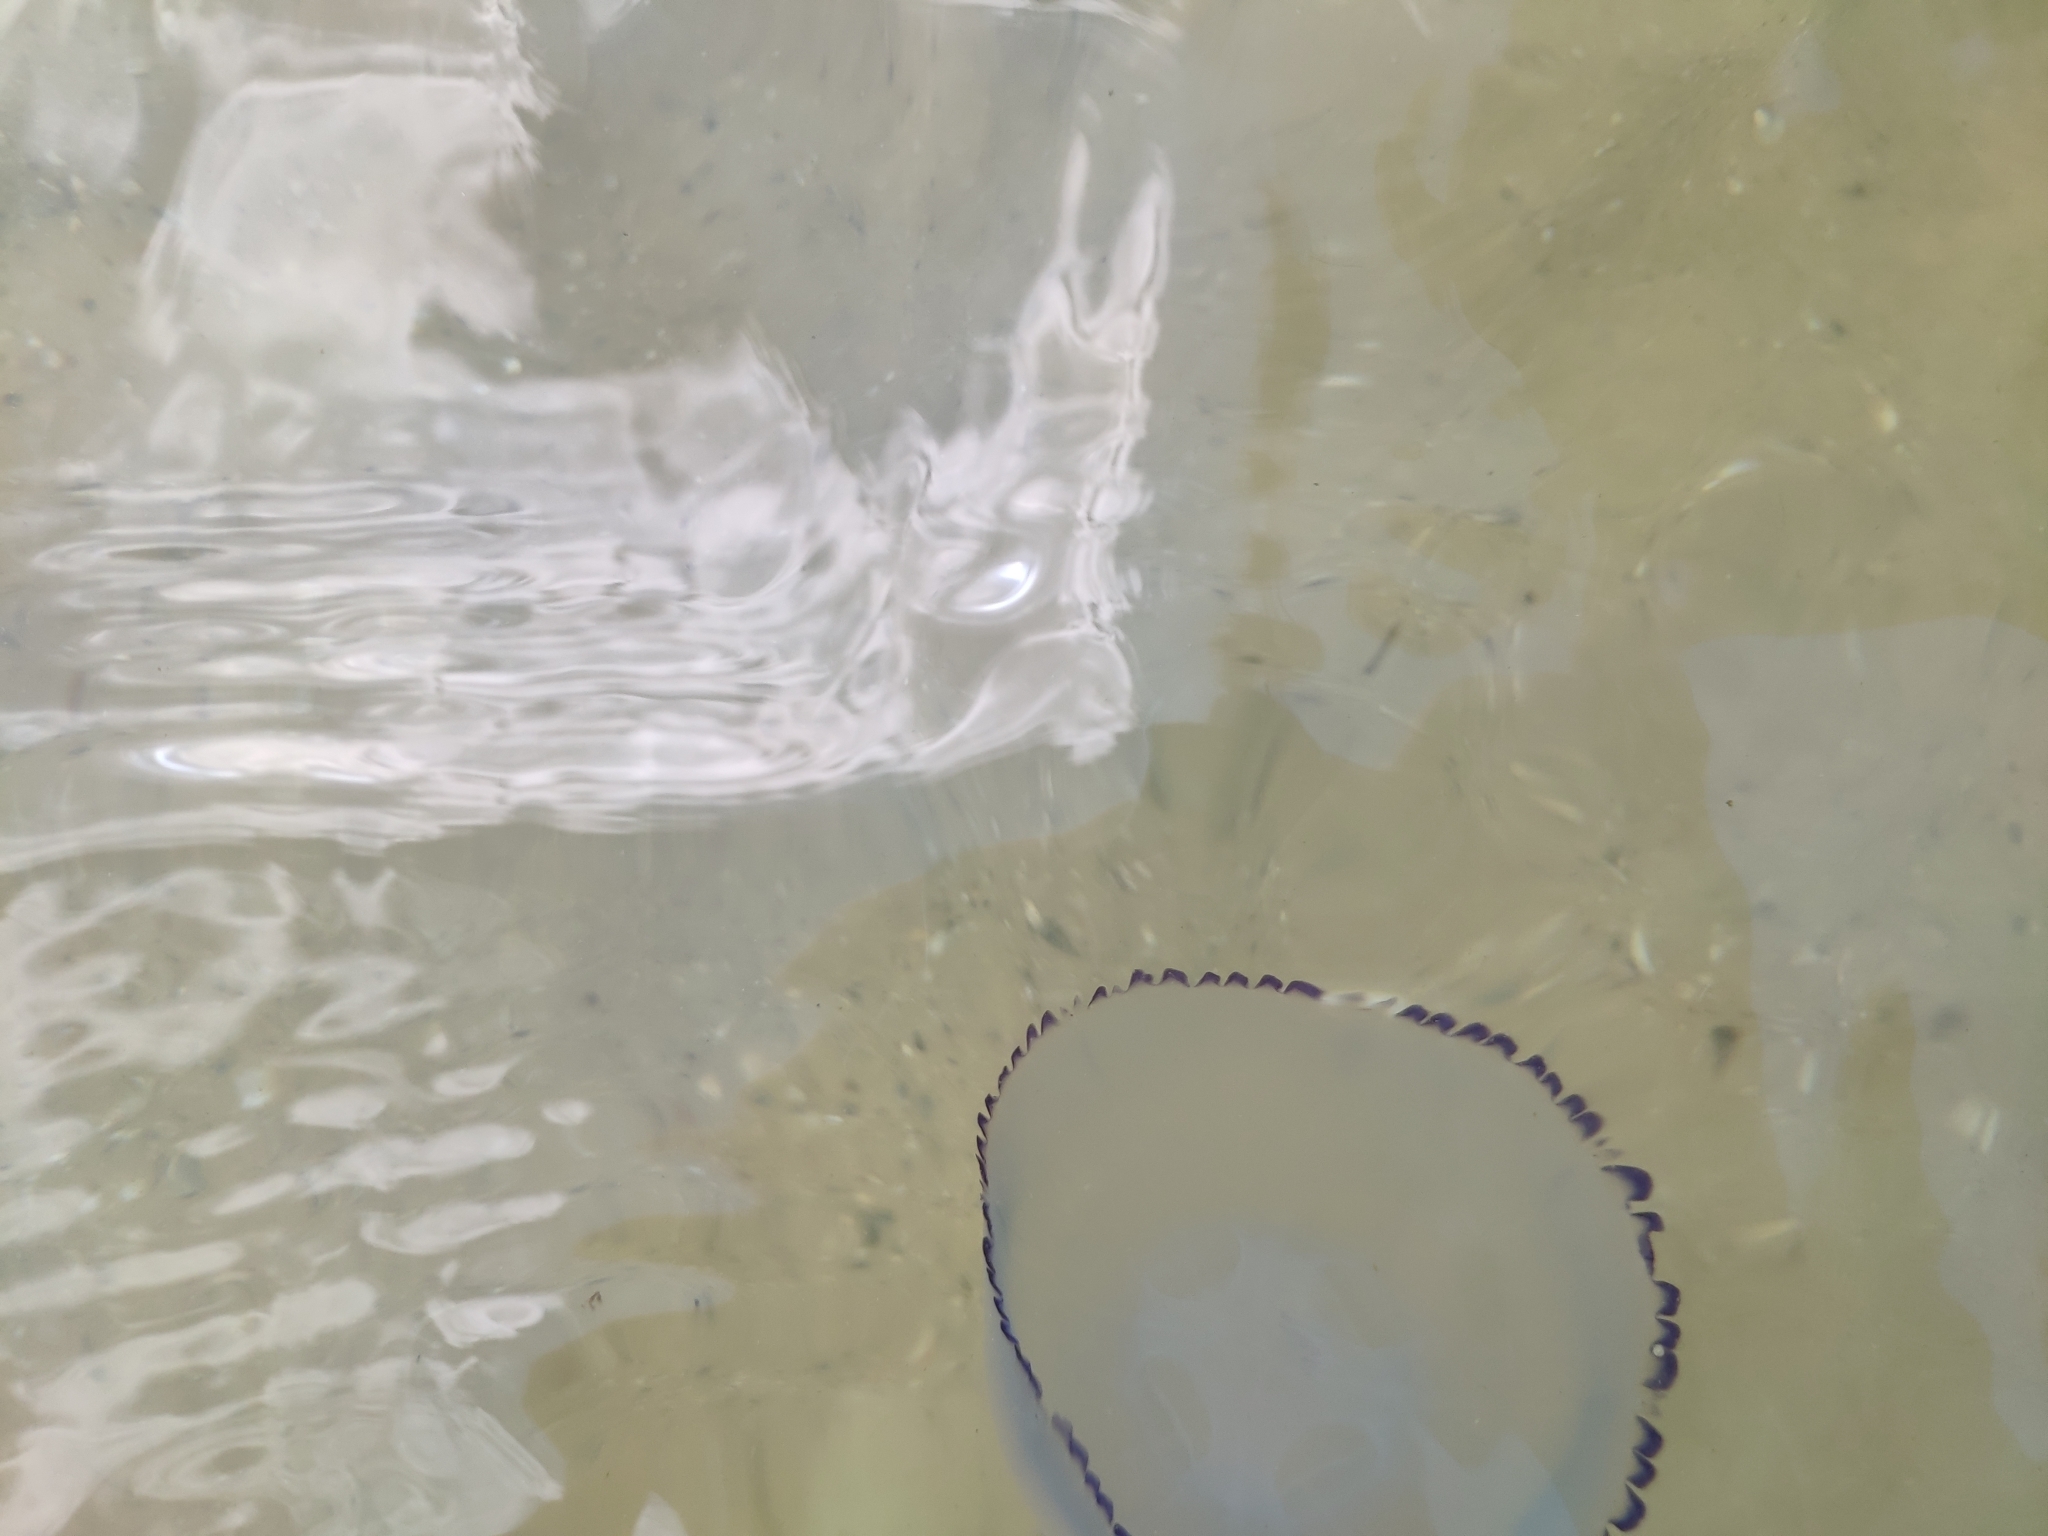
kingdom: Animalia
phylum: Cnidaria
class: Scyphozoa
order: Rhizostomeae
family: Rhizostomatidae
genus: Rhizostoma
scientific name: Rhizostoma pulmo
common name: Barrel jellyfish
